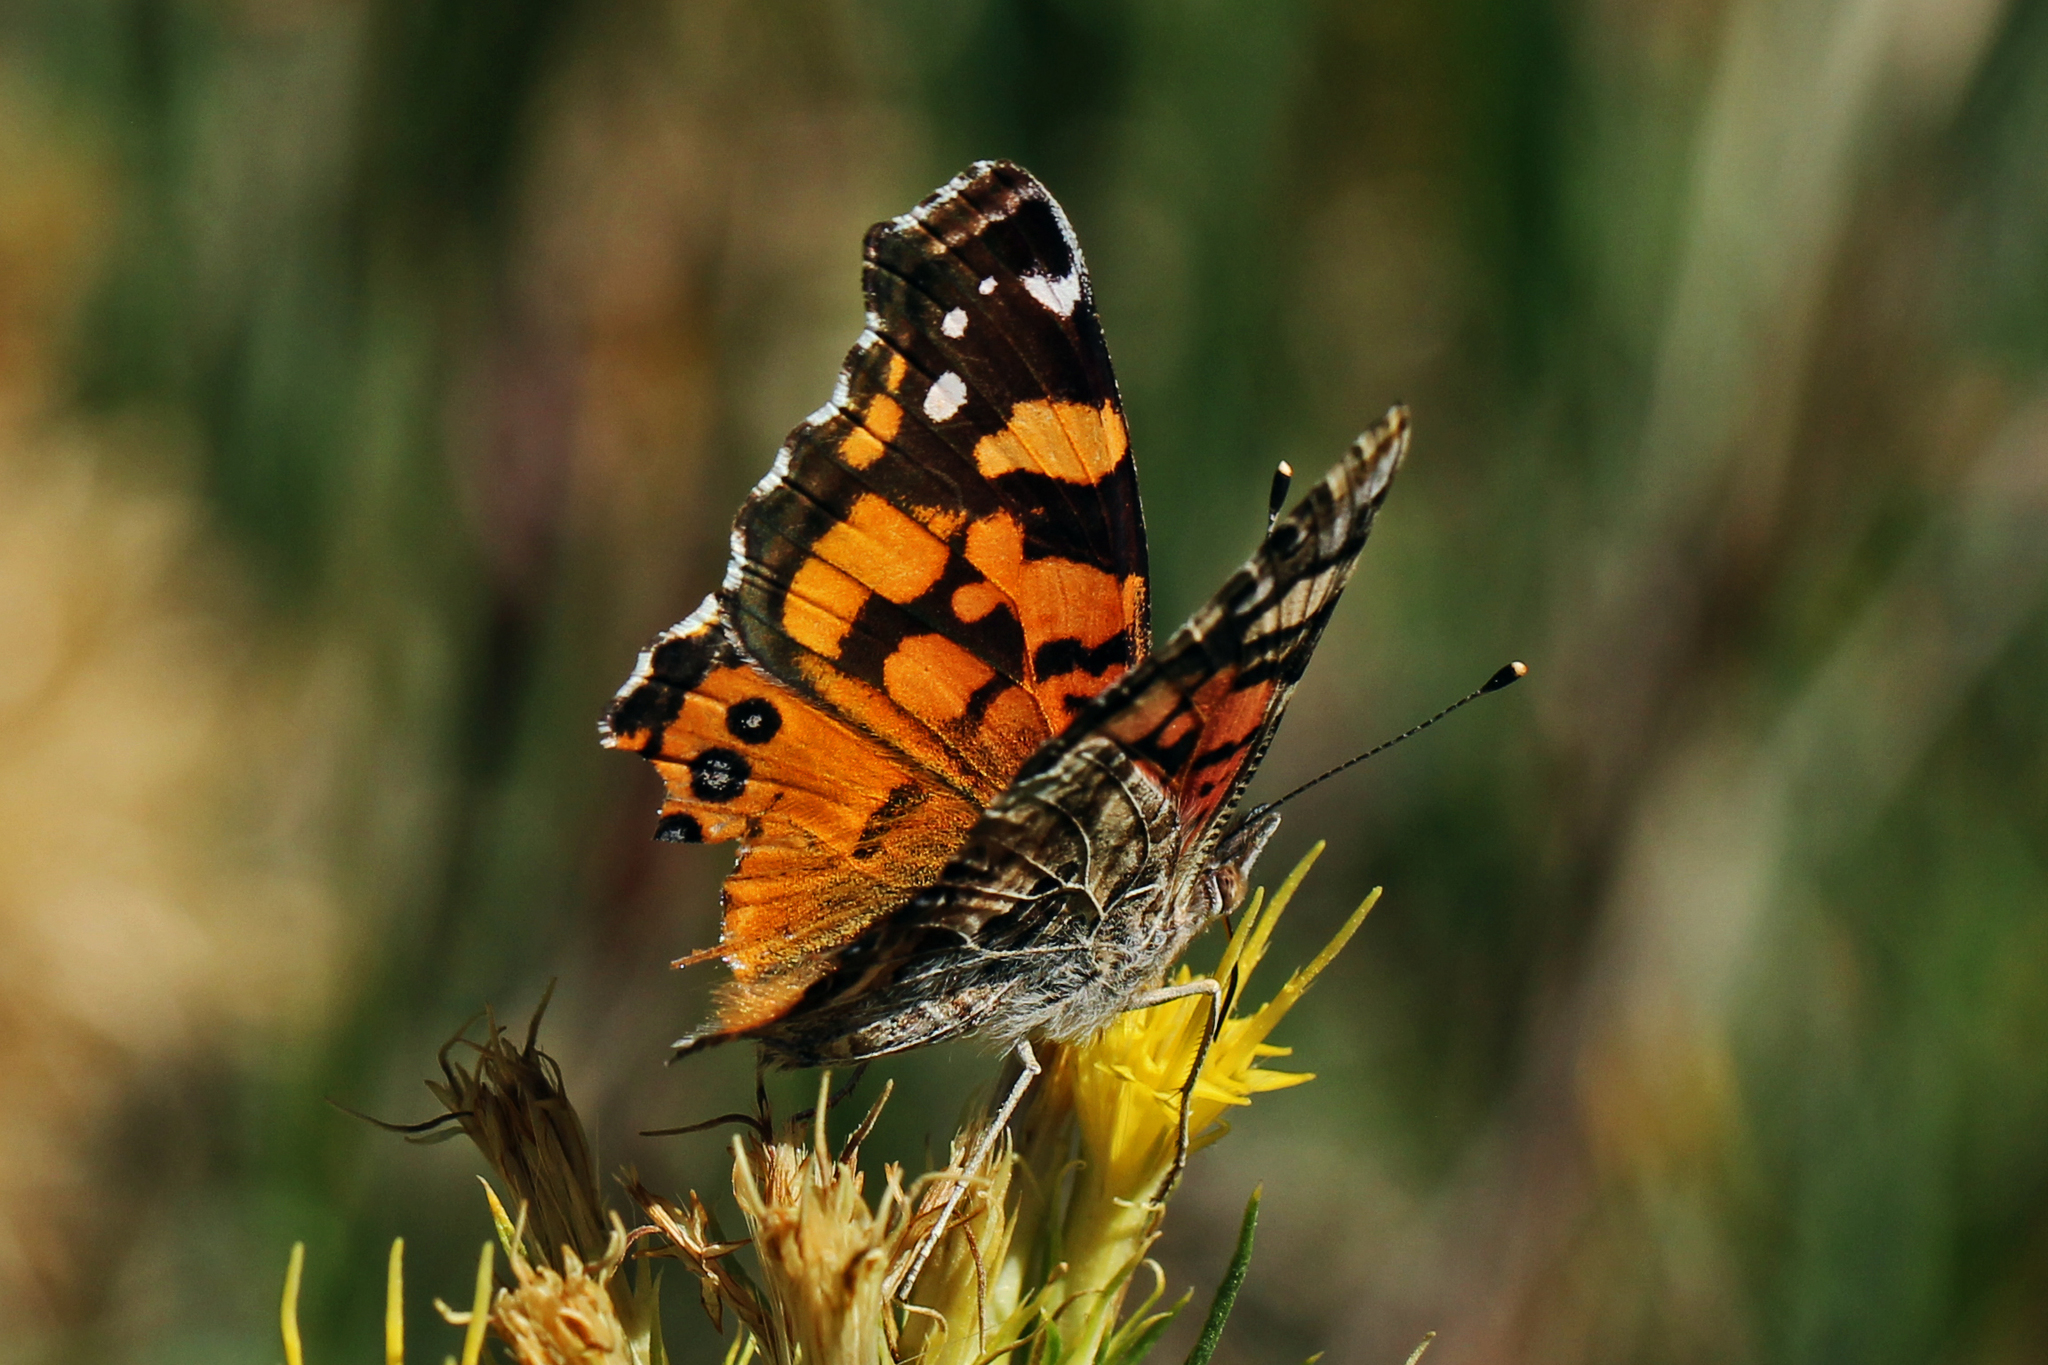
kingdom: Animalia
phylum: Arthropoda
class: Insecta
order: Lepidoptera
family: Nymphalidae
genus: Vanessa
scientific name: Vanessa annabella
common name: West coast lady
